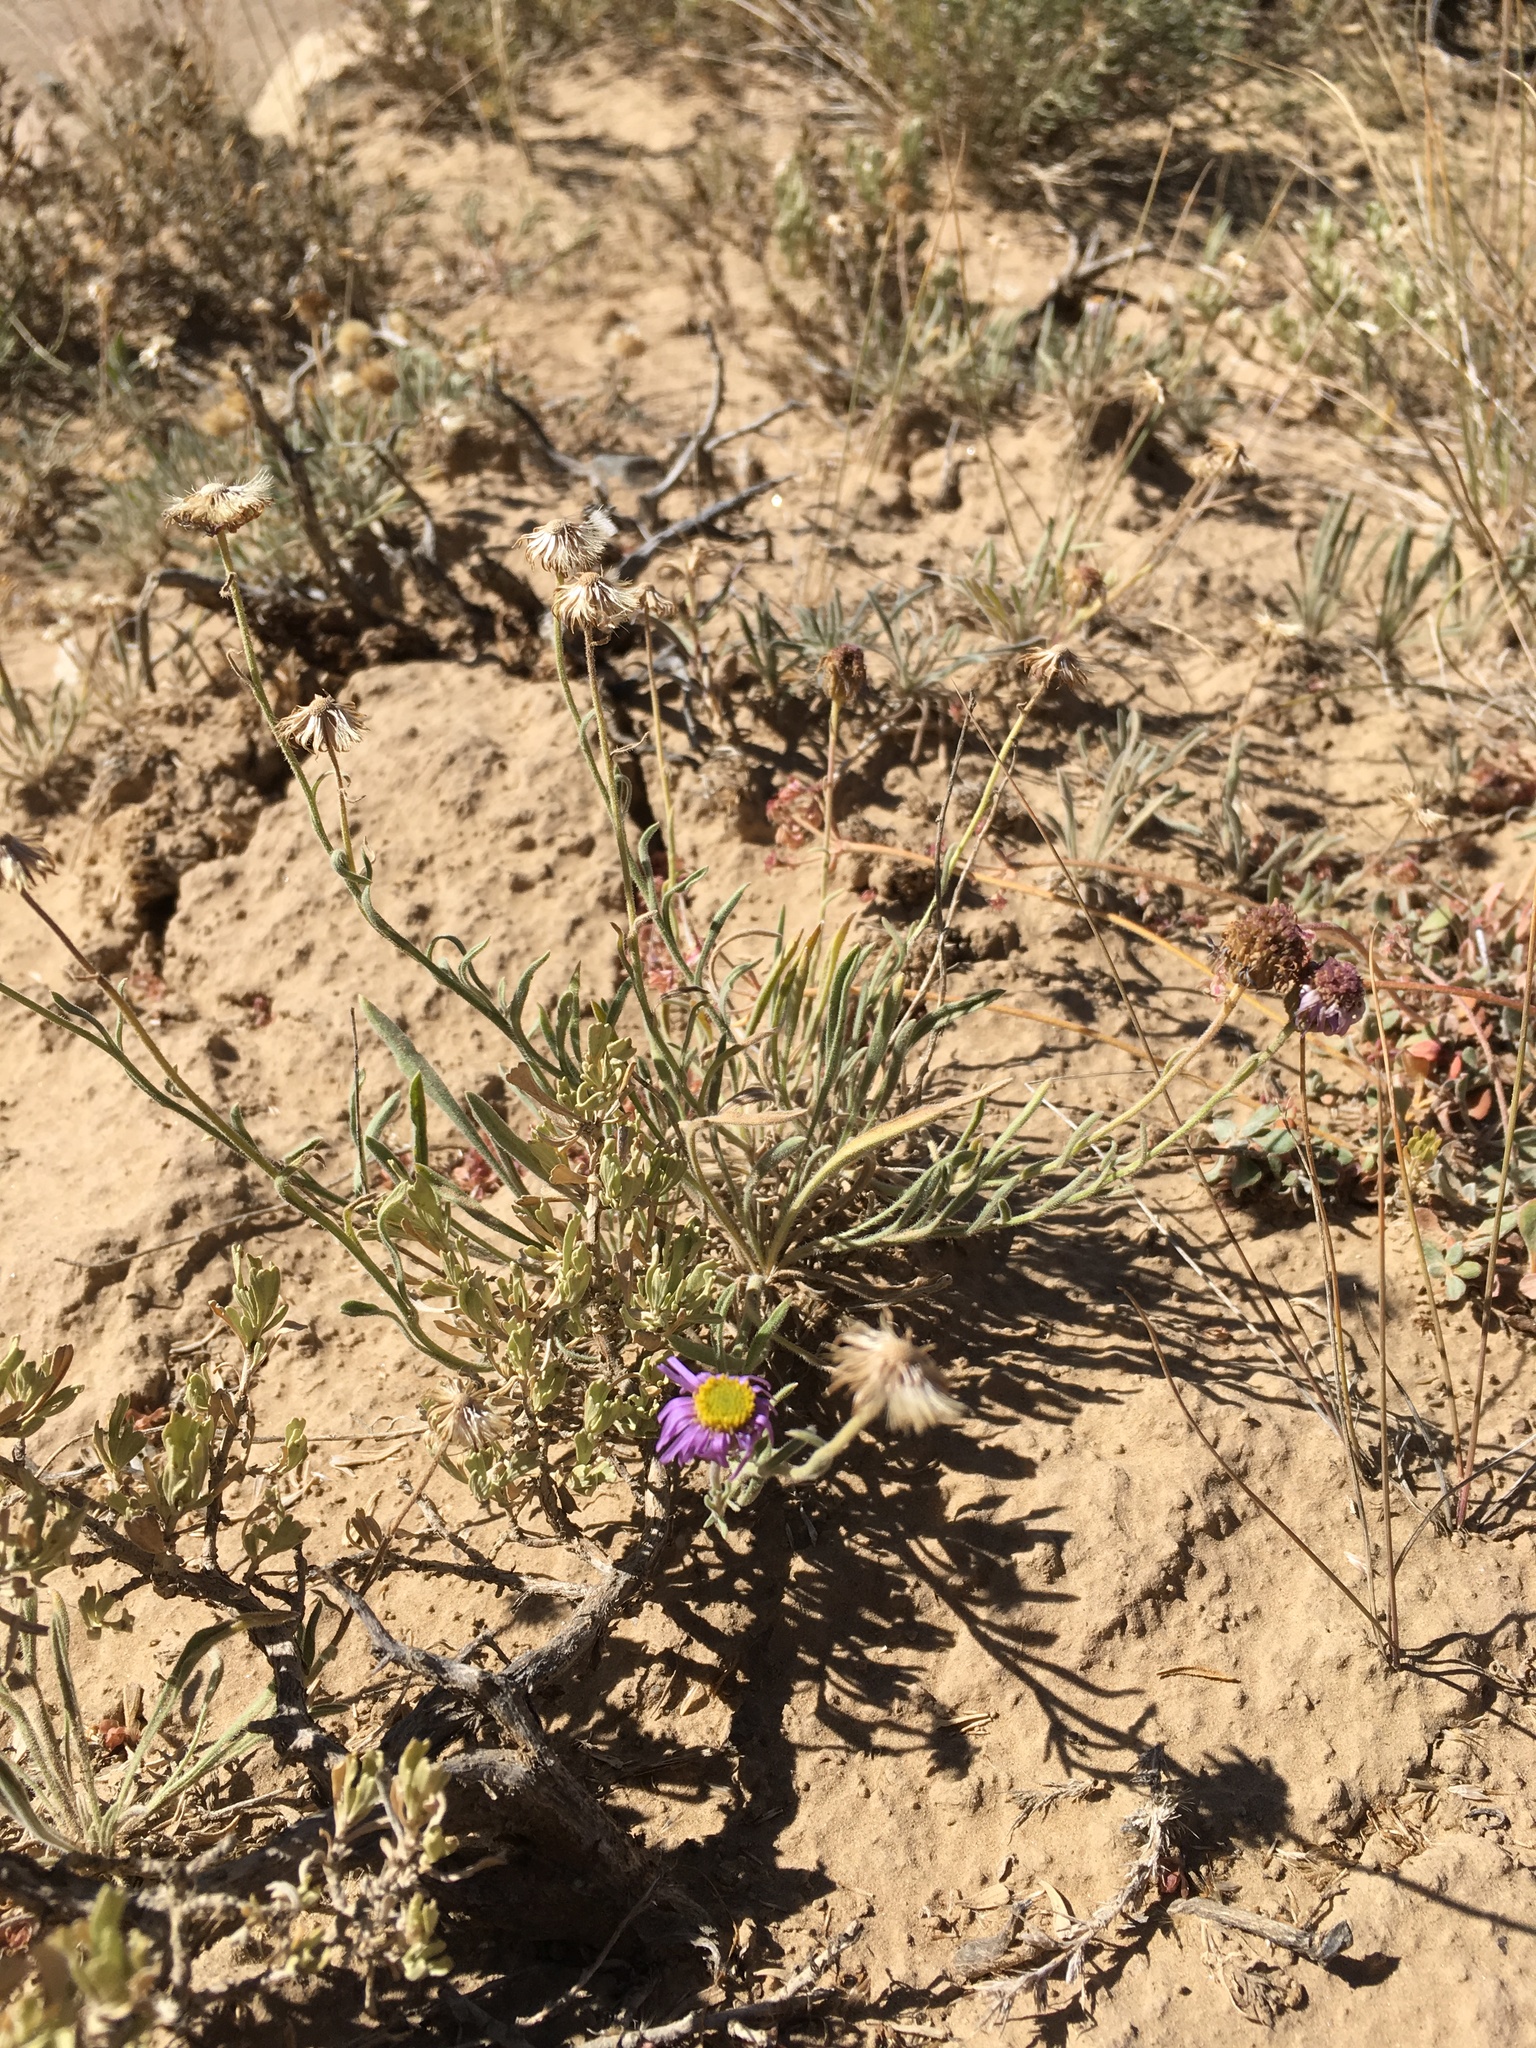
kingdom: Plantae
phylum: Tracheophyta
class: Magnoliopsida
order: Asterales
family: Asteraceae
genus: Erigeron
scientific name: Erigeron clokeyi
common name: Clokey's fleabane
